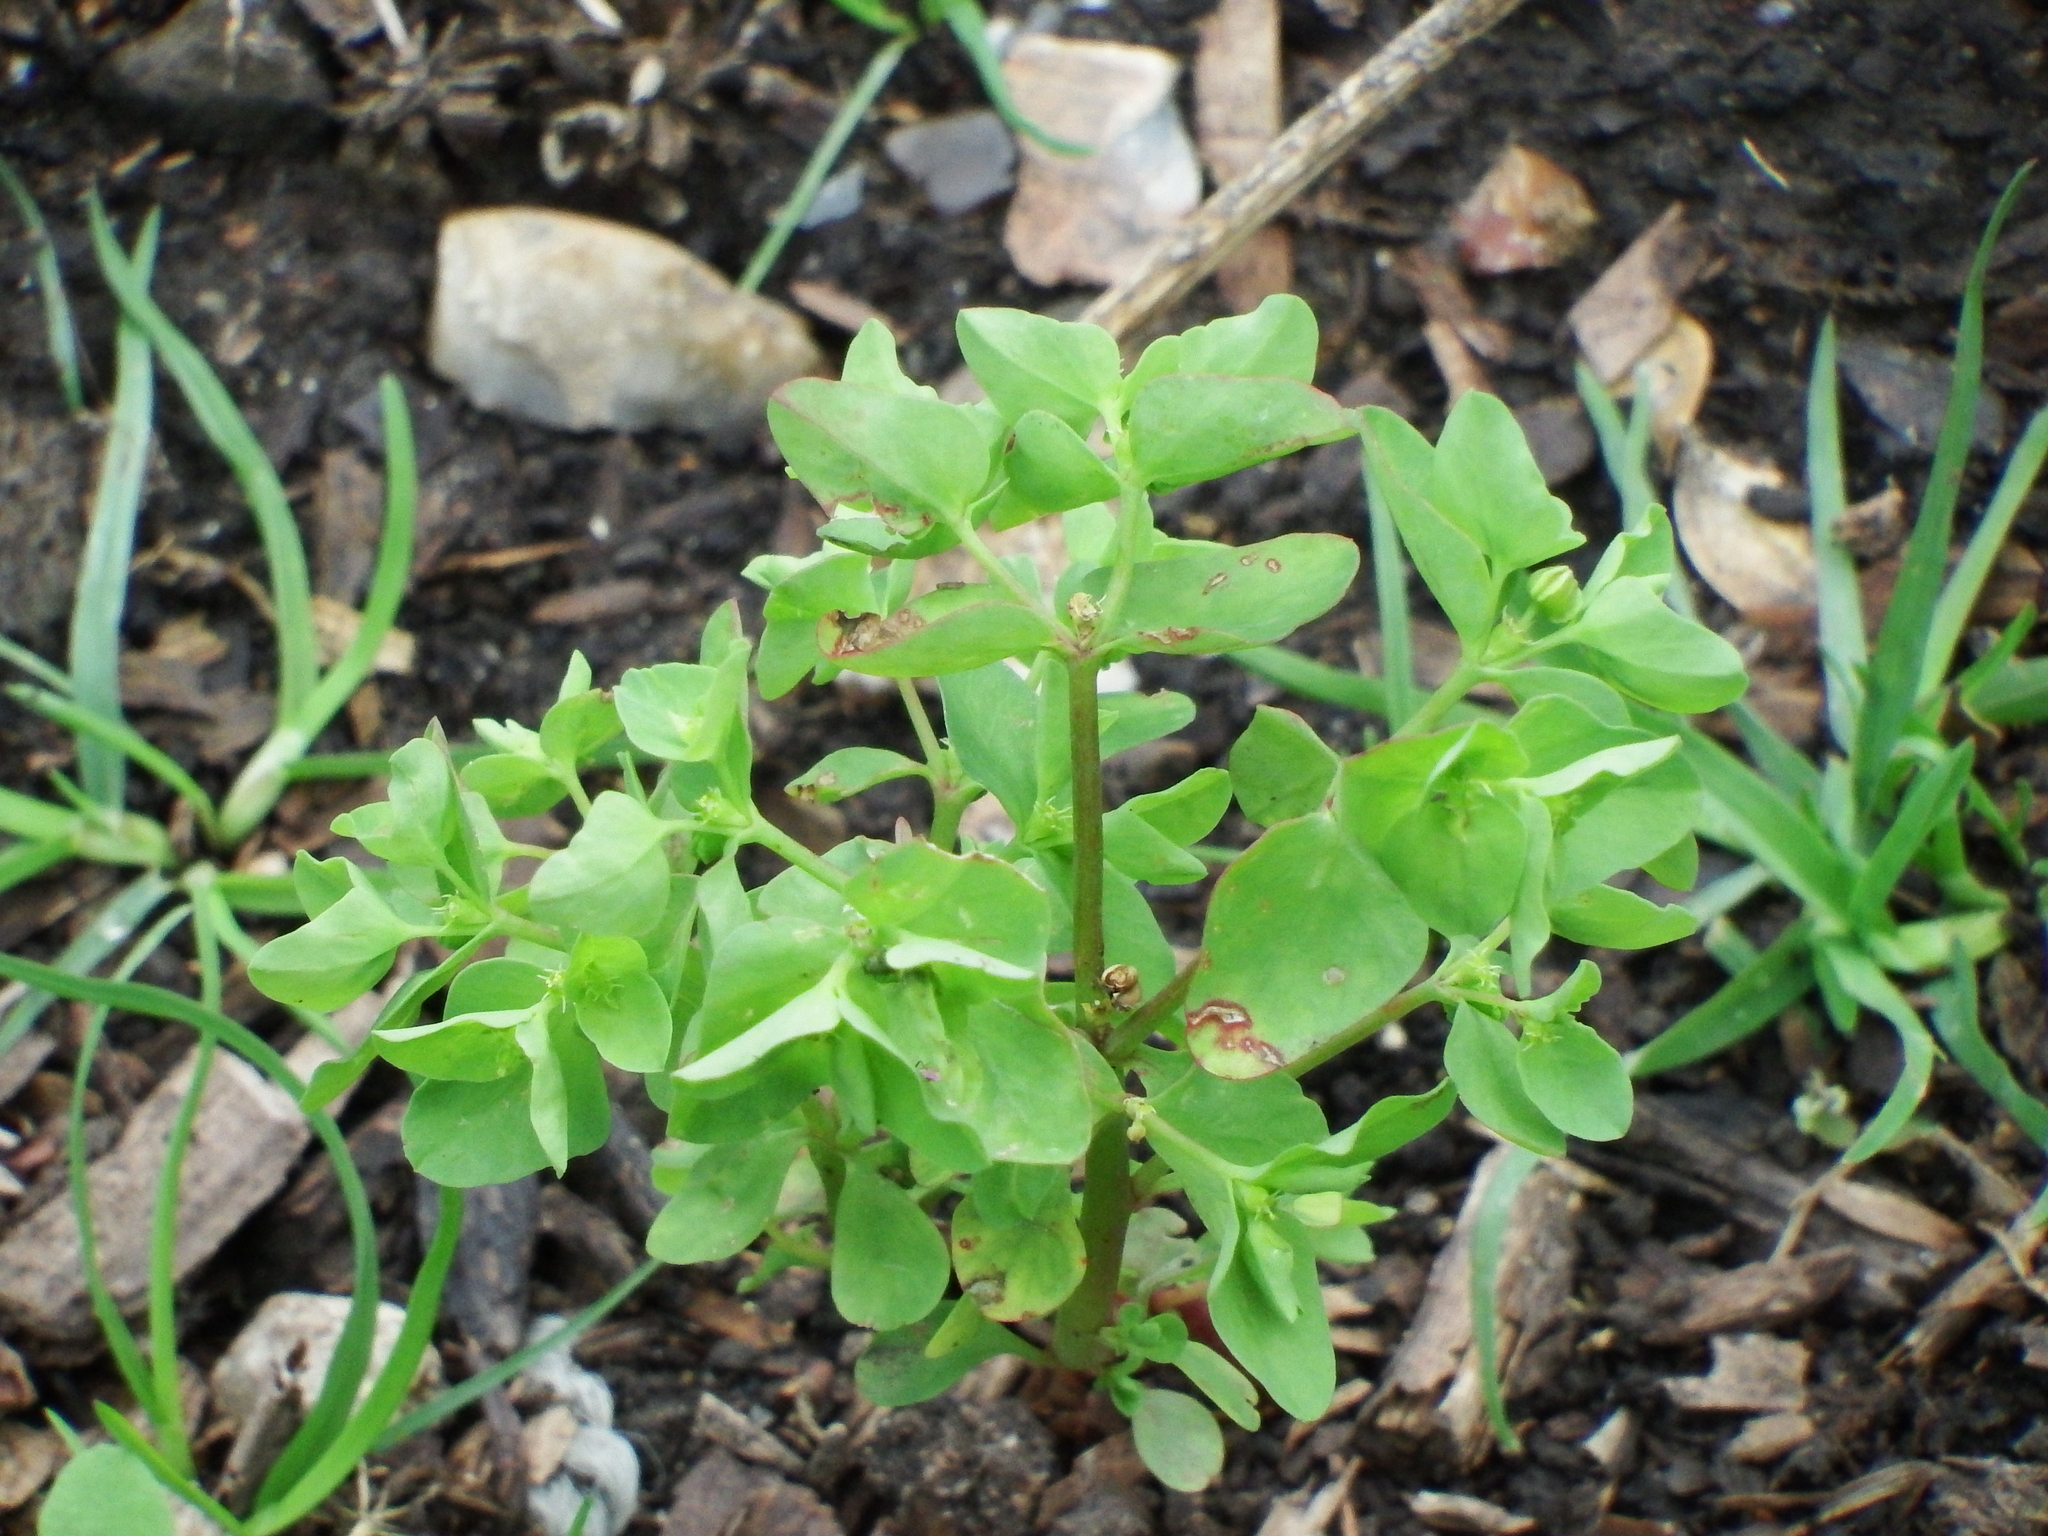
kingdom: Plantae
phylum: Tracheophyta
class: Magnoliopsida
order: Malpighiales
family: Euphorbiaceae
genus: Euphorbia
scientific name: Euphorbia peplus
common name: Petty spurge
